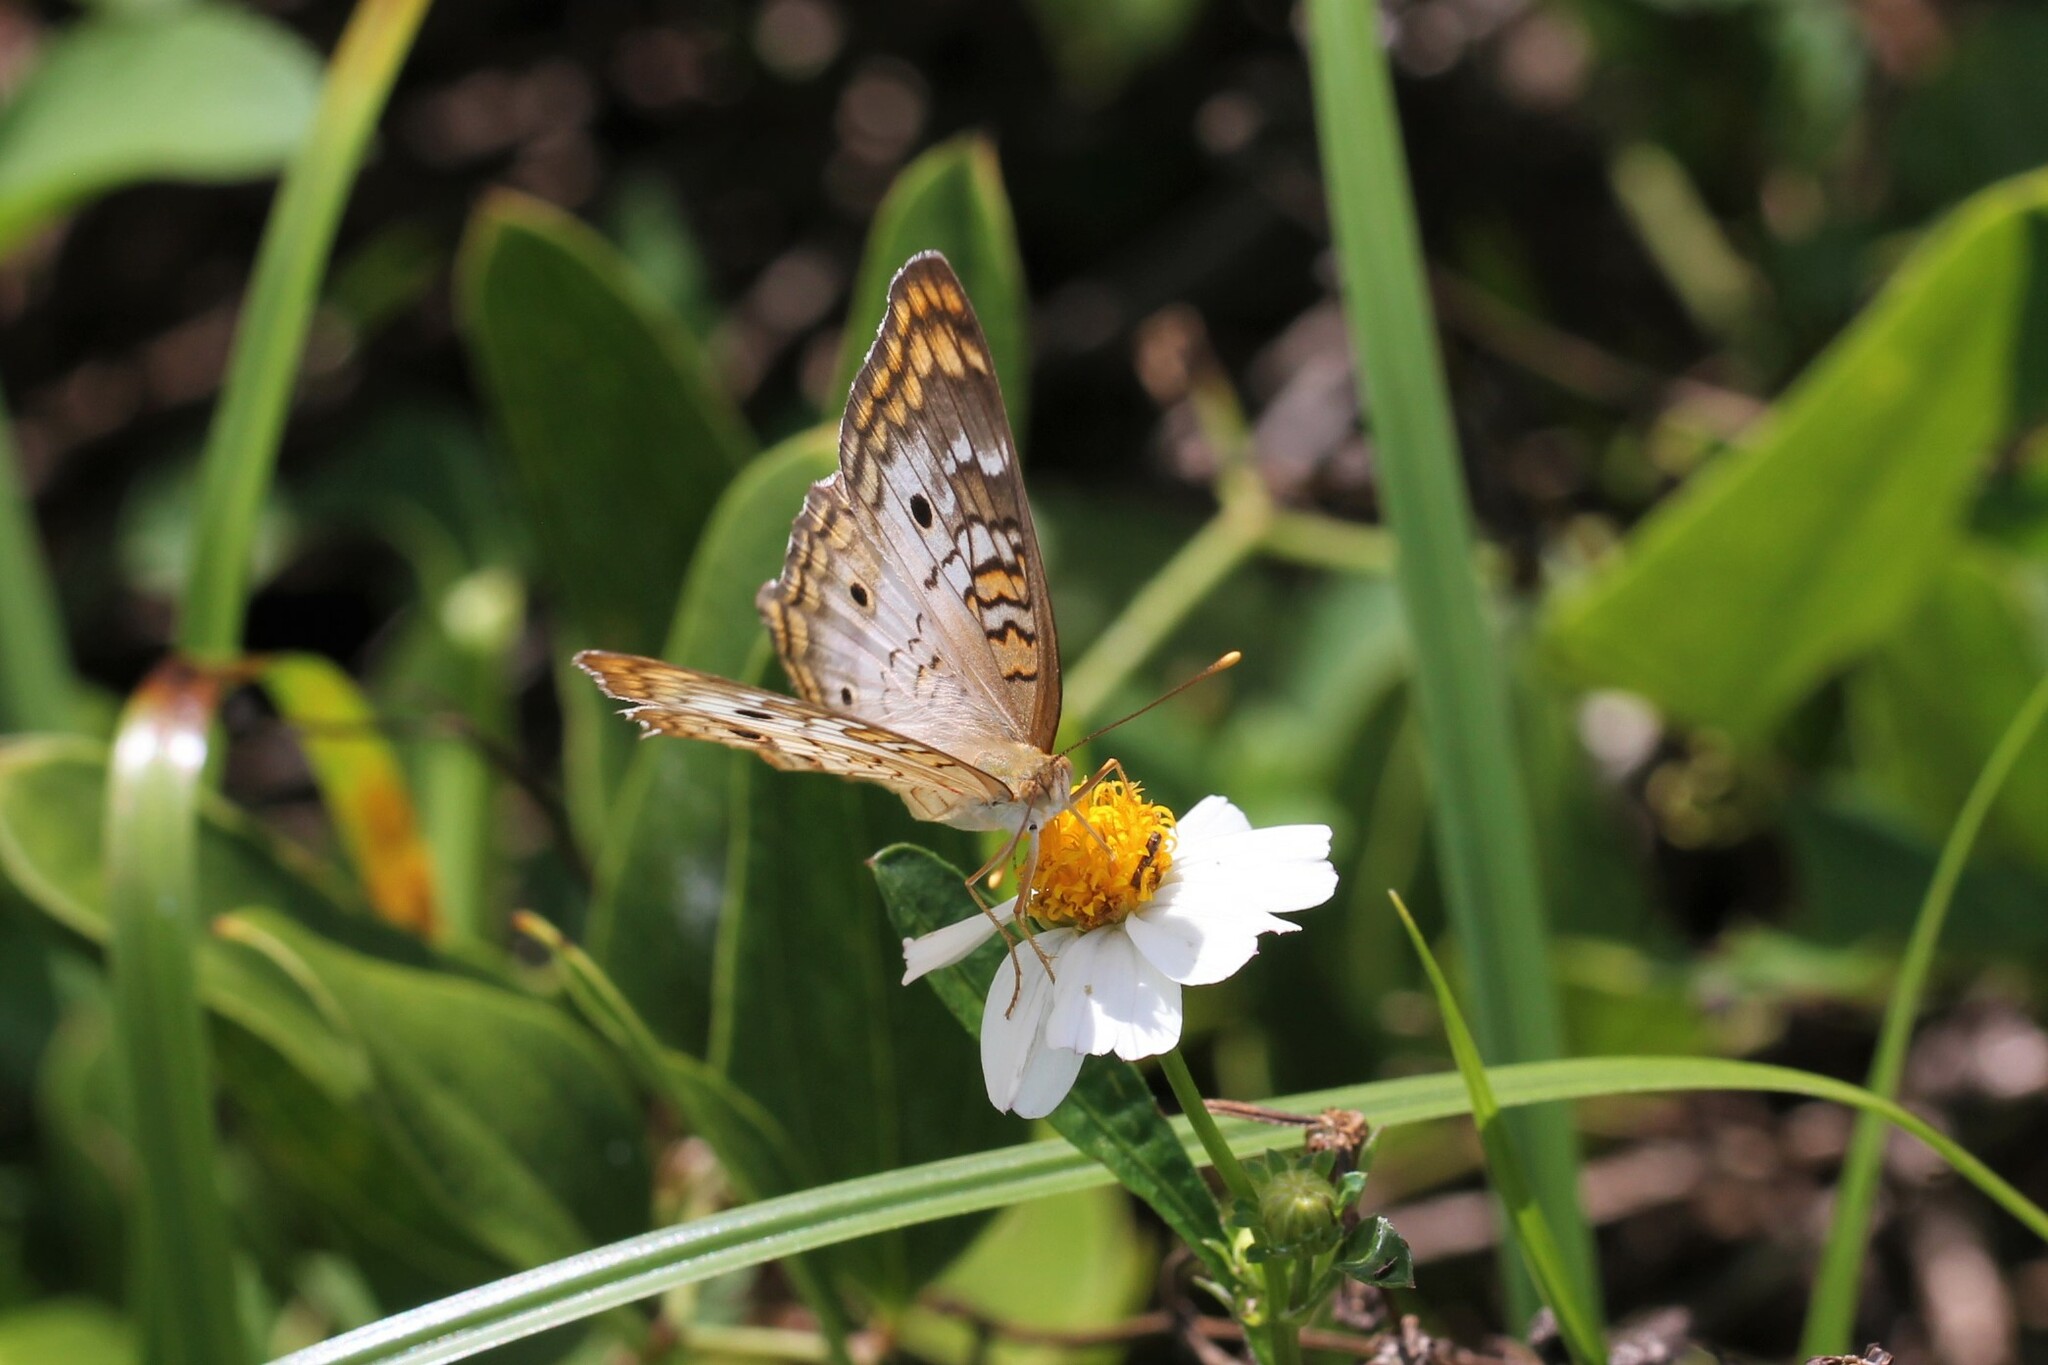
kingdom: Animalia
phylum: Arthropoda
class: Insecta
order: Lepidoptera
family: Nymphalidae
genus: Anartia
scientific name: Anartia jatrophae
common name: White peacock
